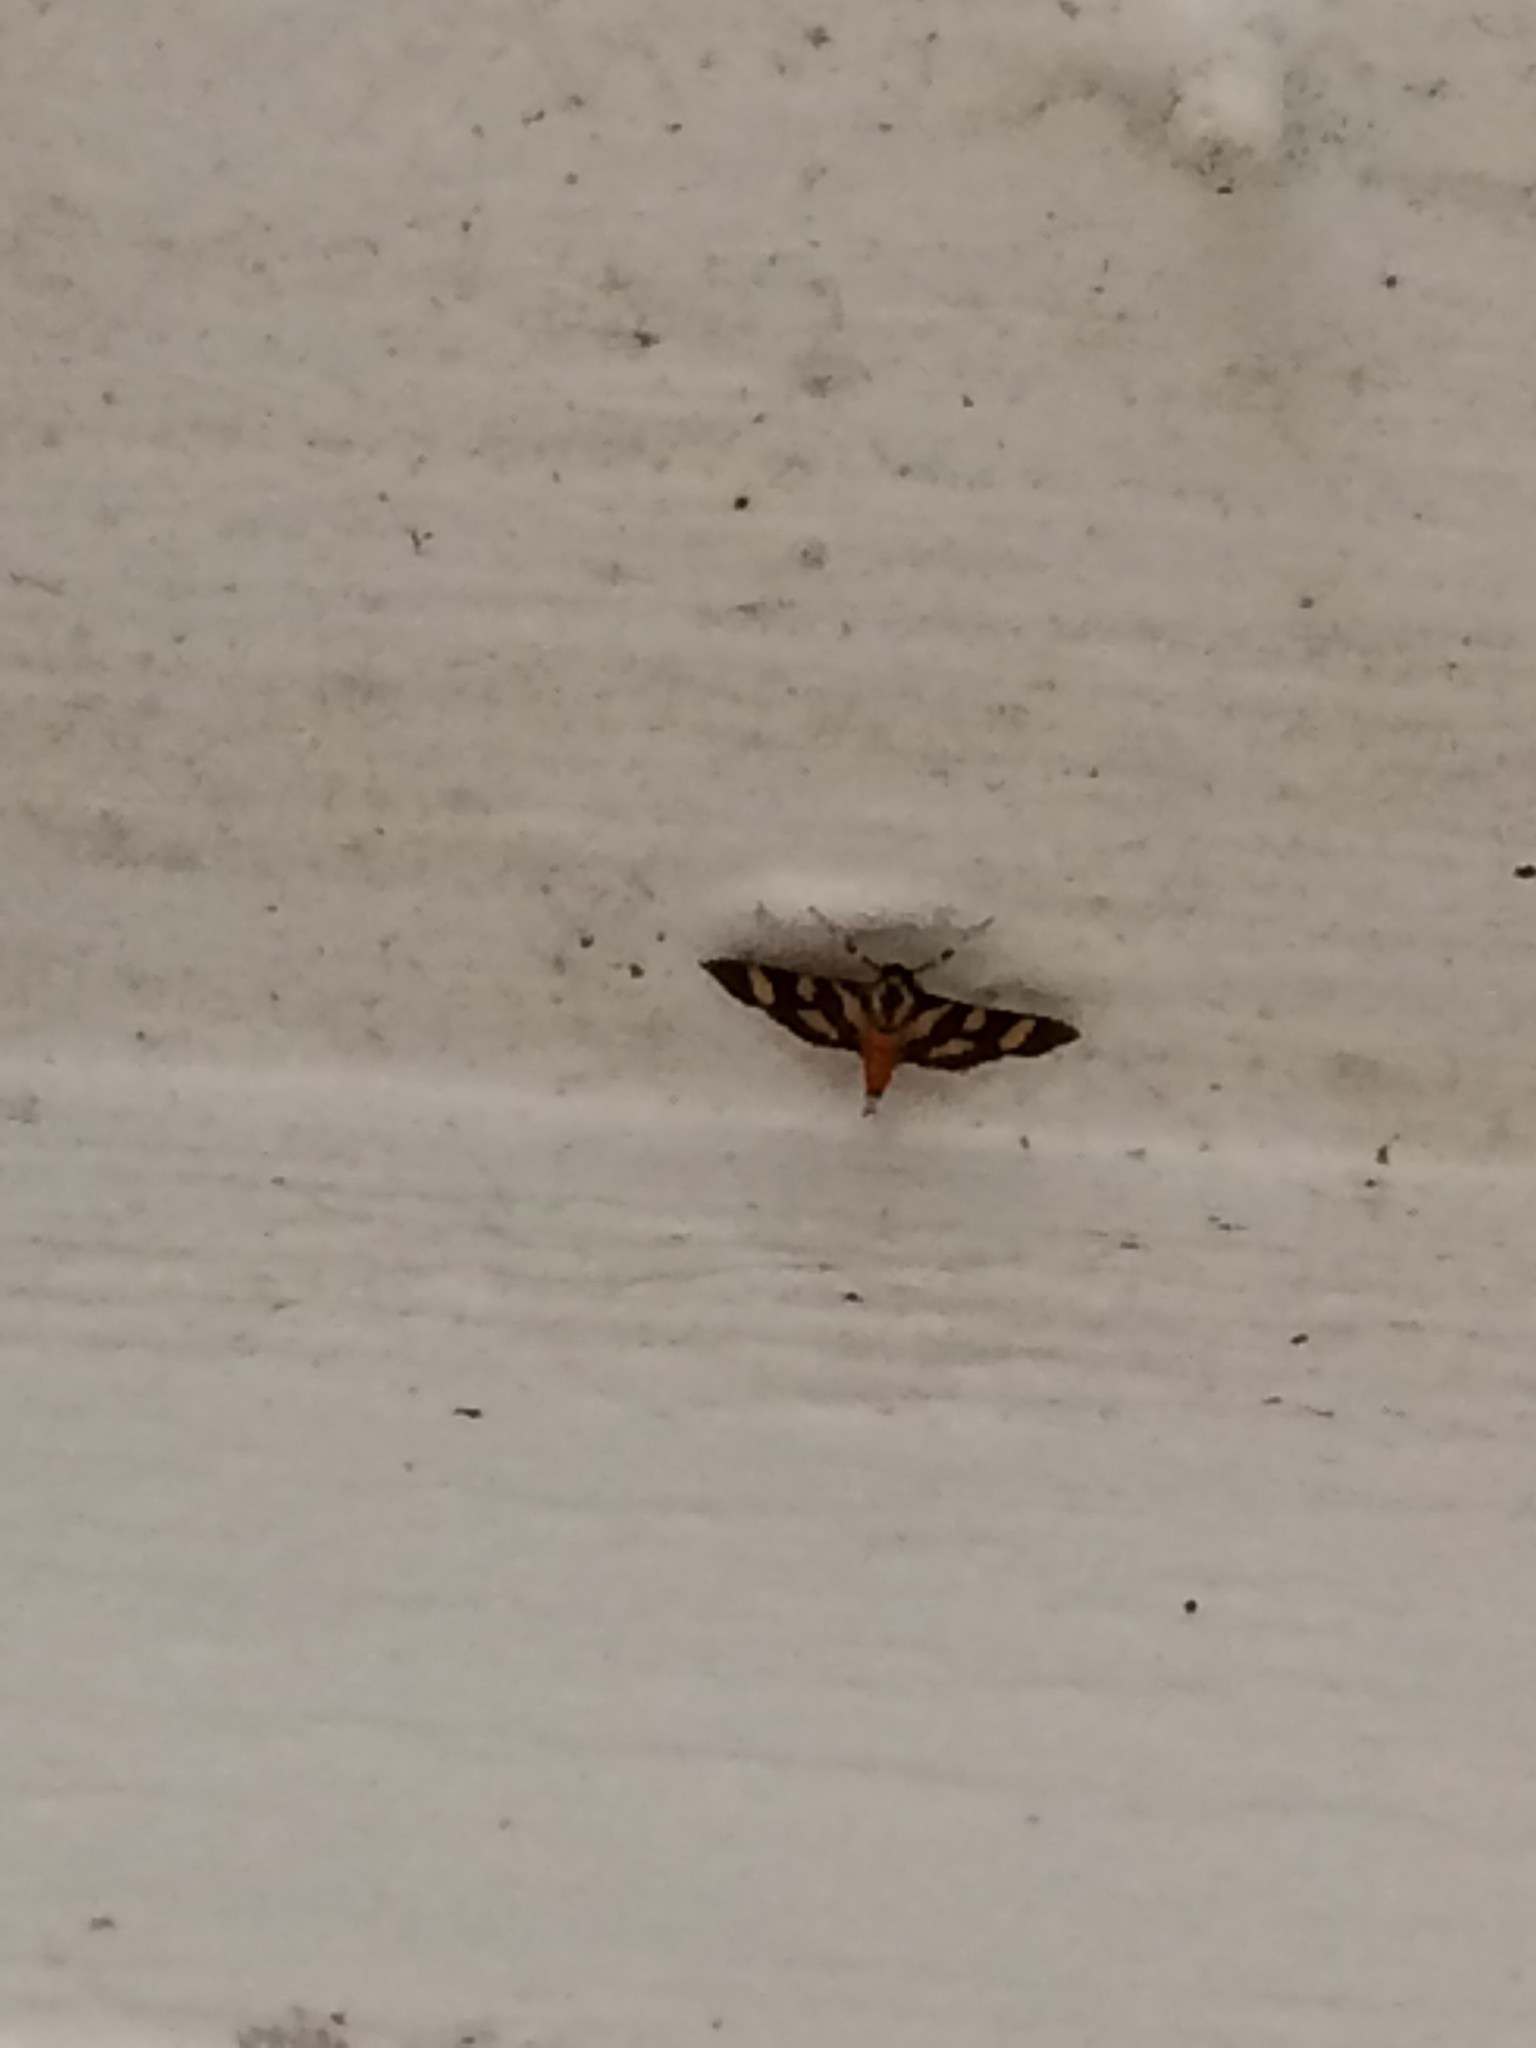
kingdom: Animalia
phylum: Arthropoda
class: Insecta
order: Lepidoptera
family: Crambidae
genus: Syngamia
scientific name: Syngamia florella
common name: Orange-spotted flower moth
